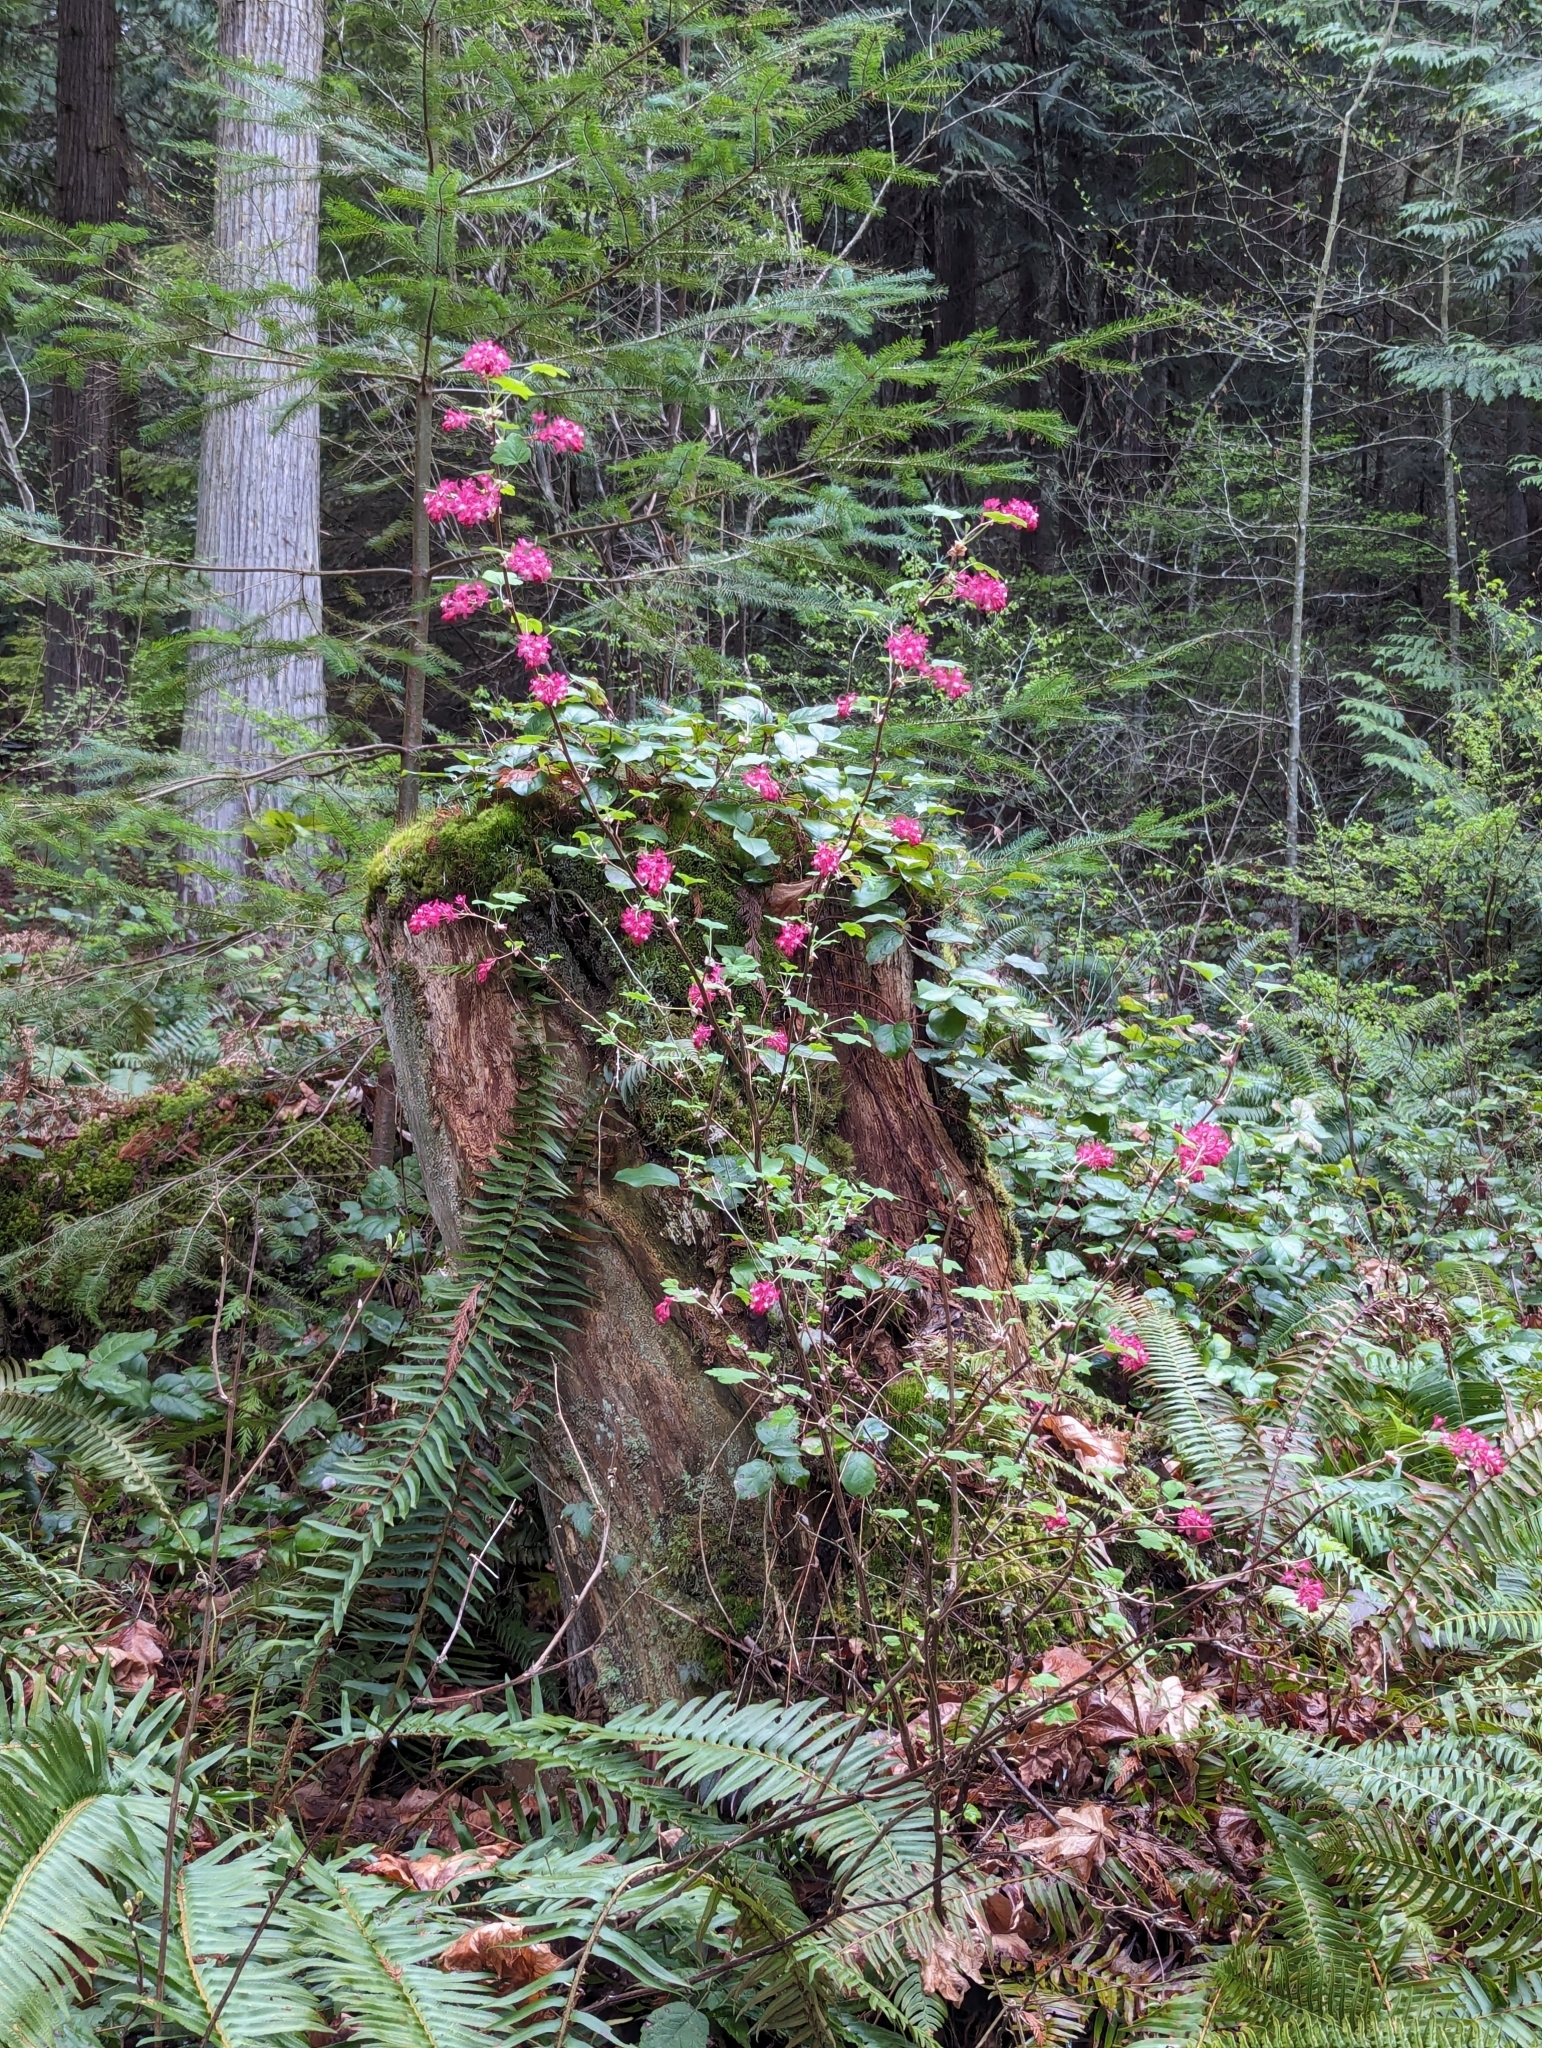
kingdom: Plantae
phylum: Tracheophyta
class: Magnoliopsida
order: Saxifragales
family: Grossulariaceae
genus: Ribes
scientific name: Ribes sanguineum
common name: Flowering currant
